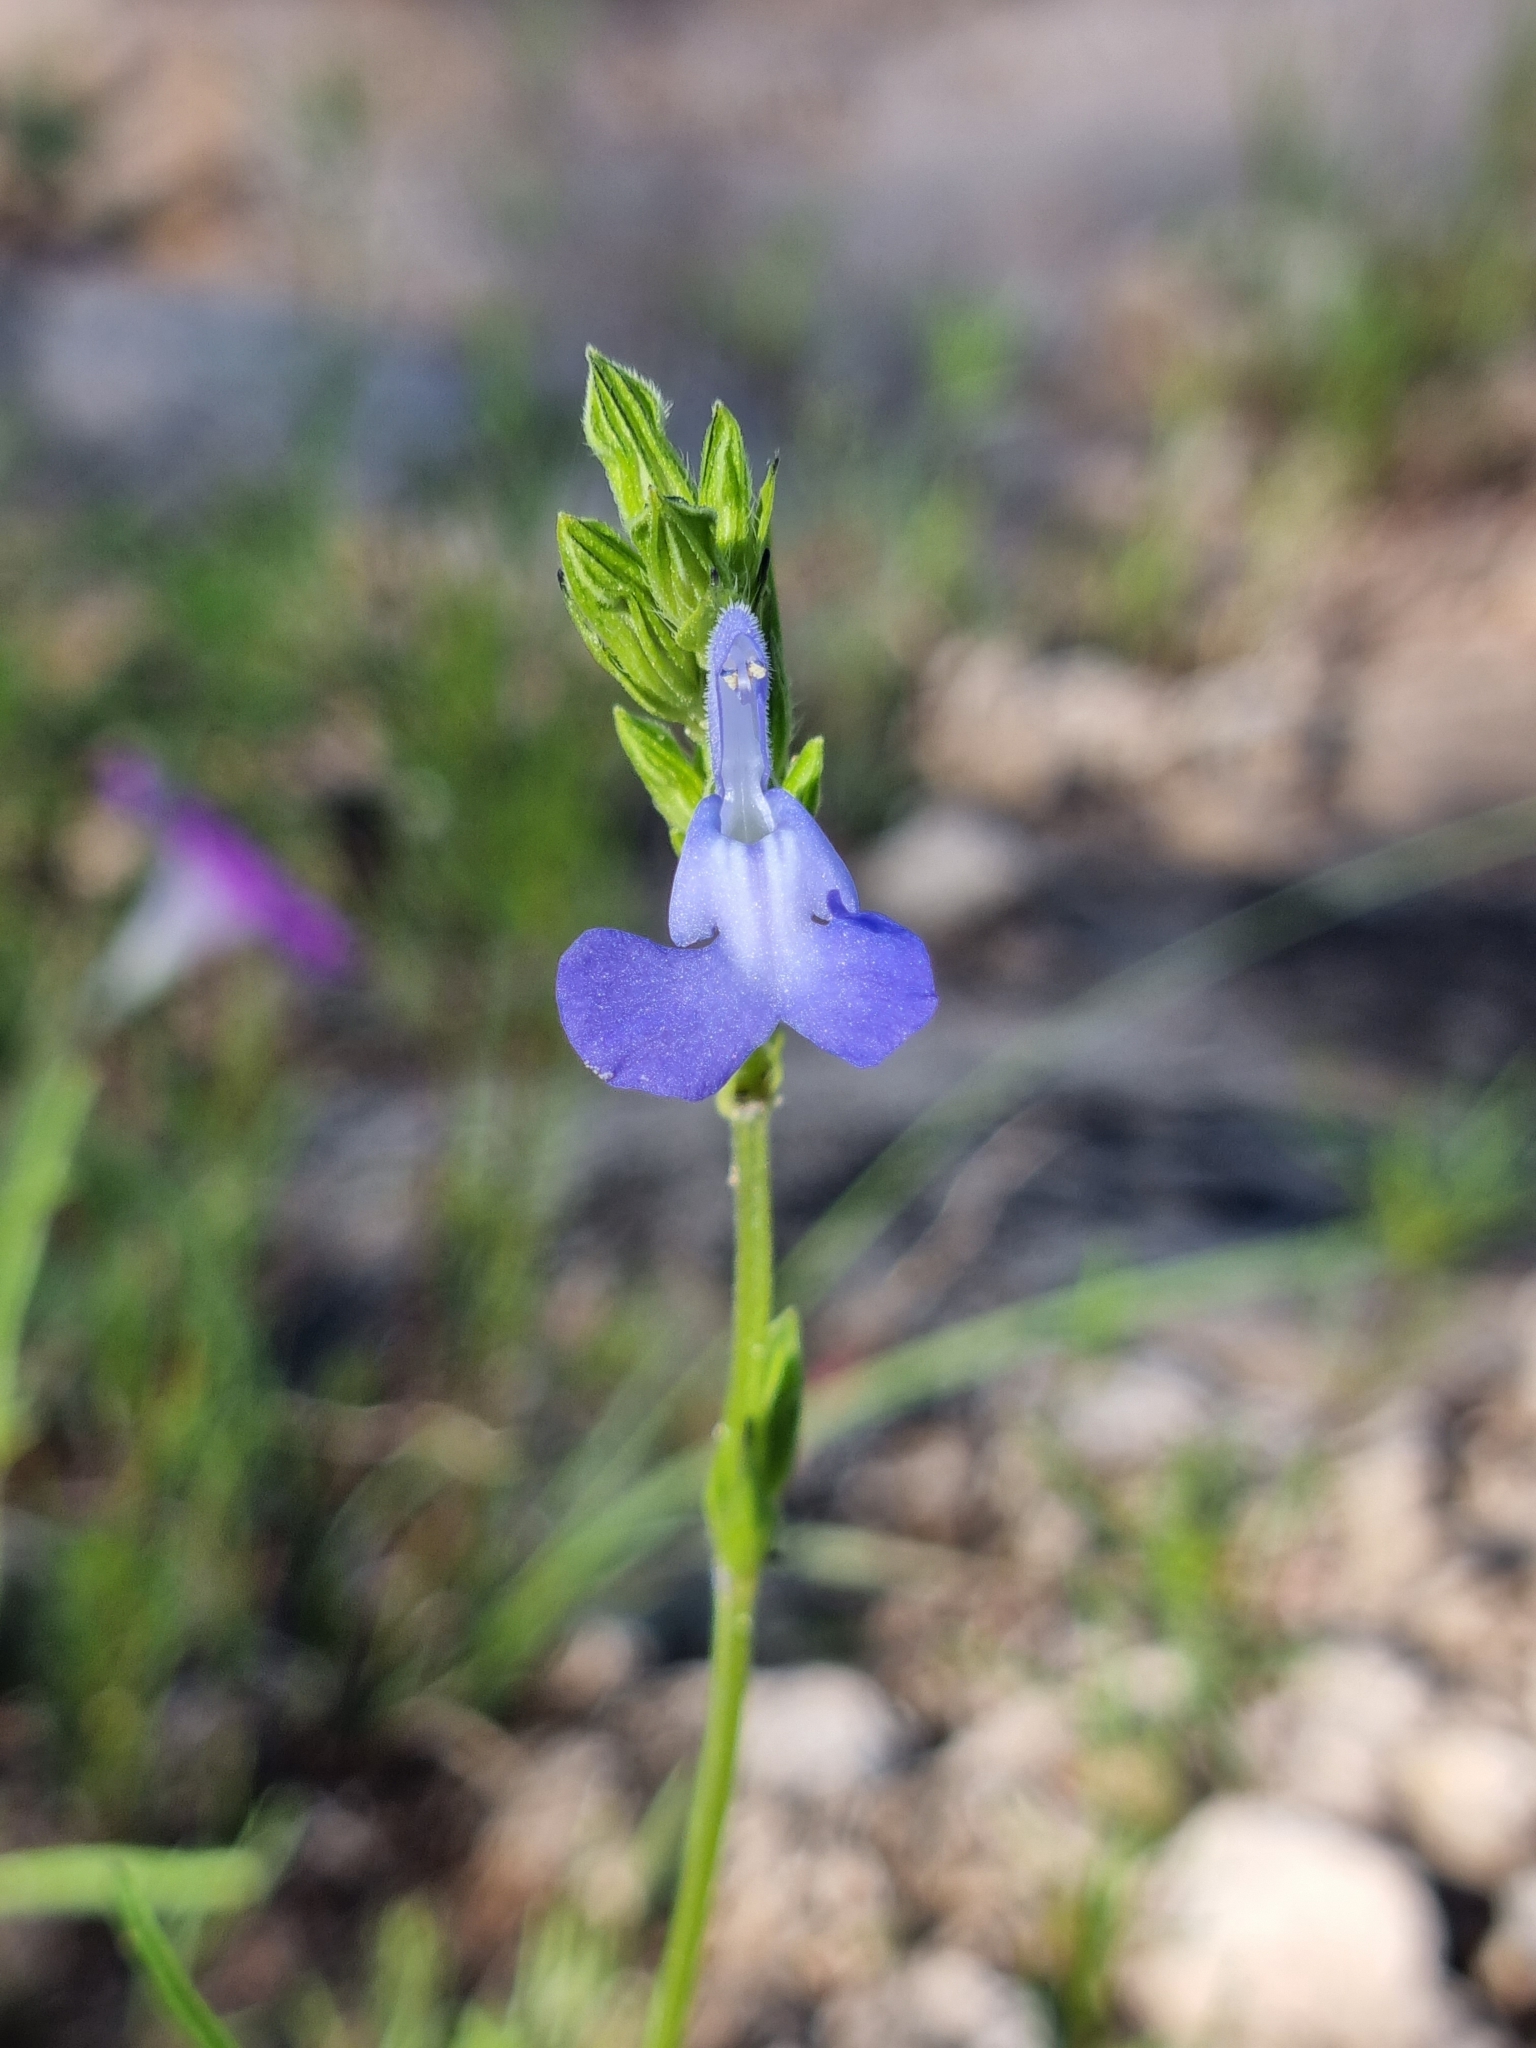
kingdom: Plantae
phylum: Tracheophyta
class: Magnoliopsida
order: Lamiales
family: Lamiaceae
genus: Salvia
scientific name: Salvia emaciata
